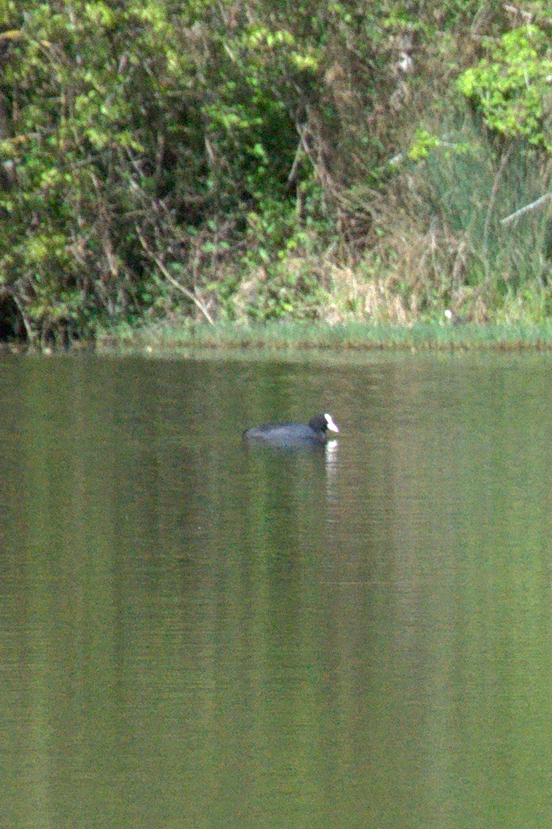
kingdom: Animalia
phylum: Chordata
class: Aves
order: Gruiformes
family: Rallidae
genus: Fulica
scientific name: Fulica atra
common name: Eurasian coot
